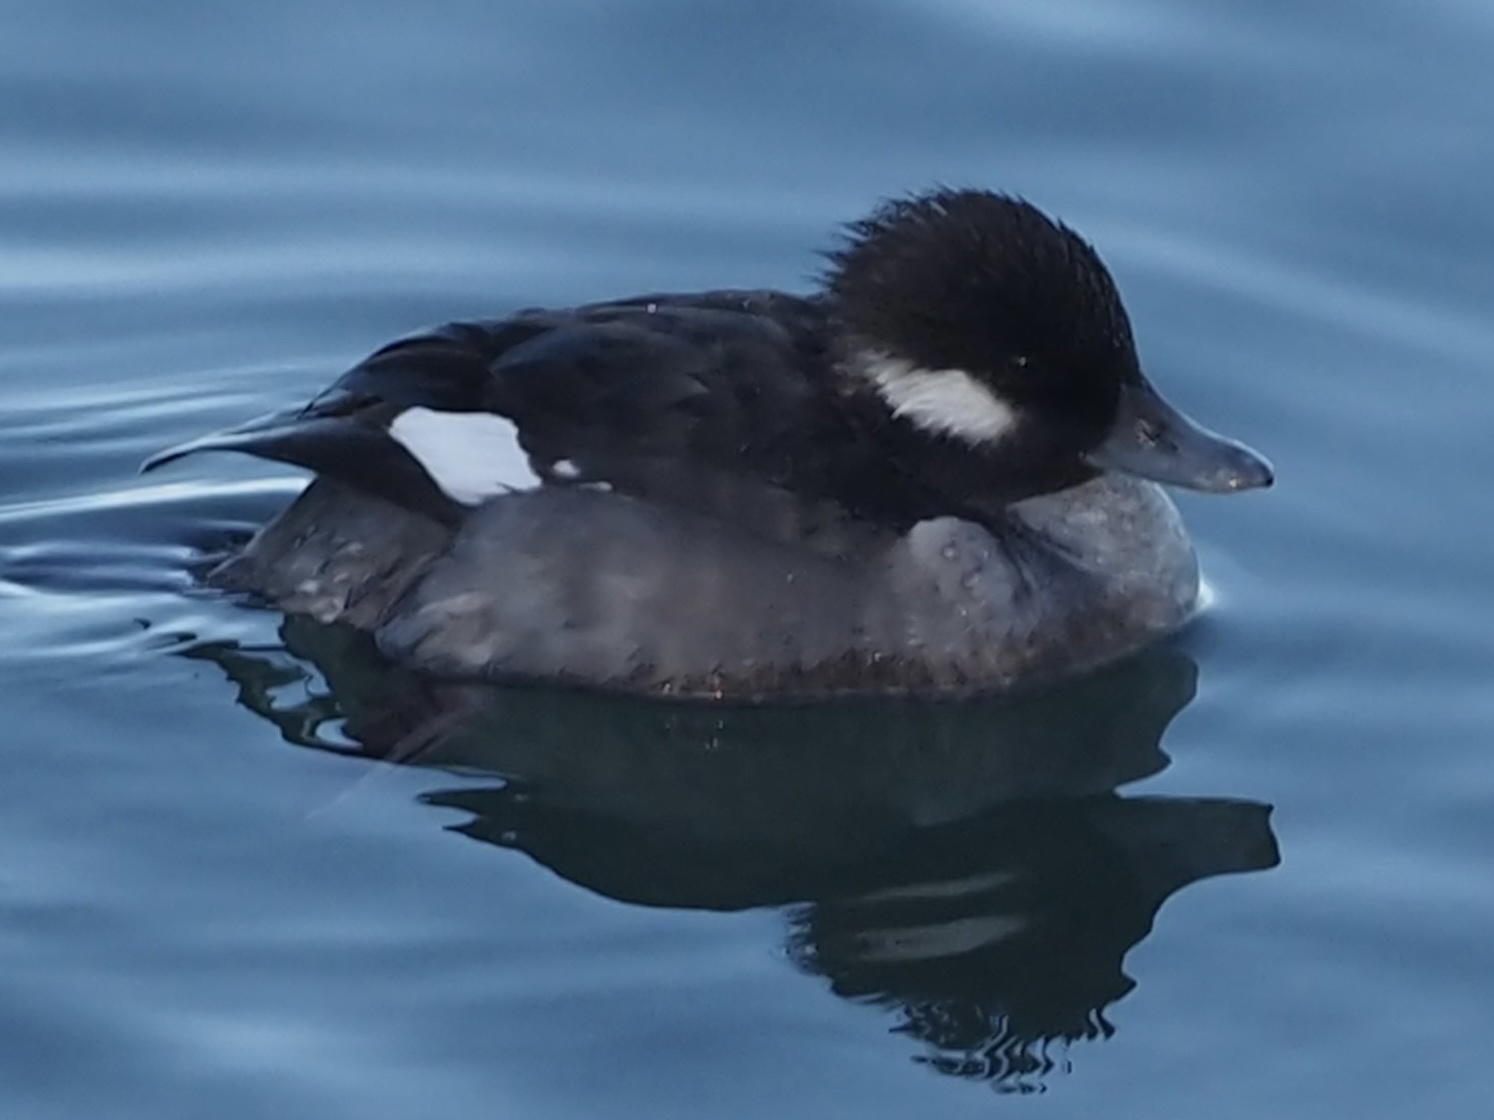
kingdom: Animalia
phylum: Chordata
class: Aves
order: Anseriformes
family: Anatidae
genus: Bucephala
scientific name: Bucephala albeola
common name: Bufflehead
